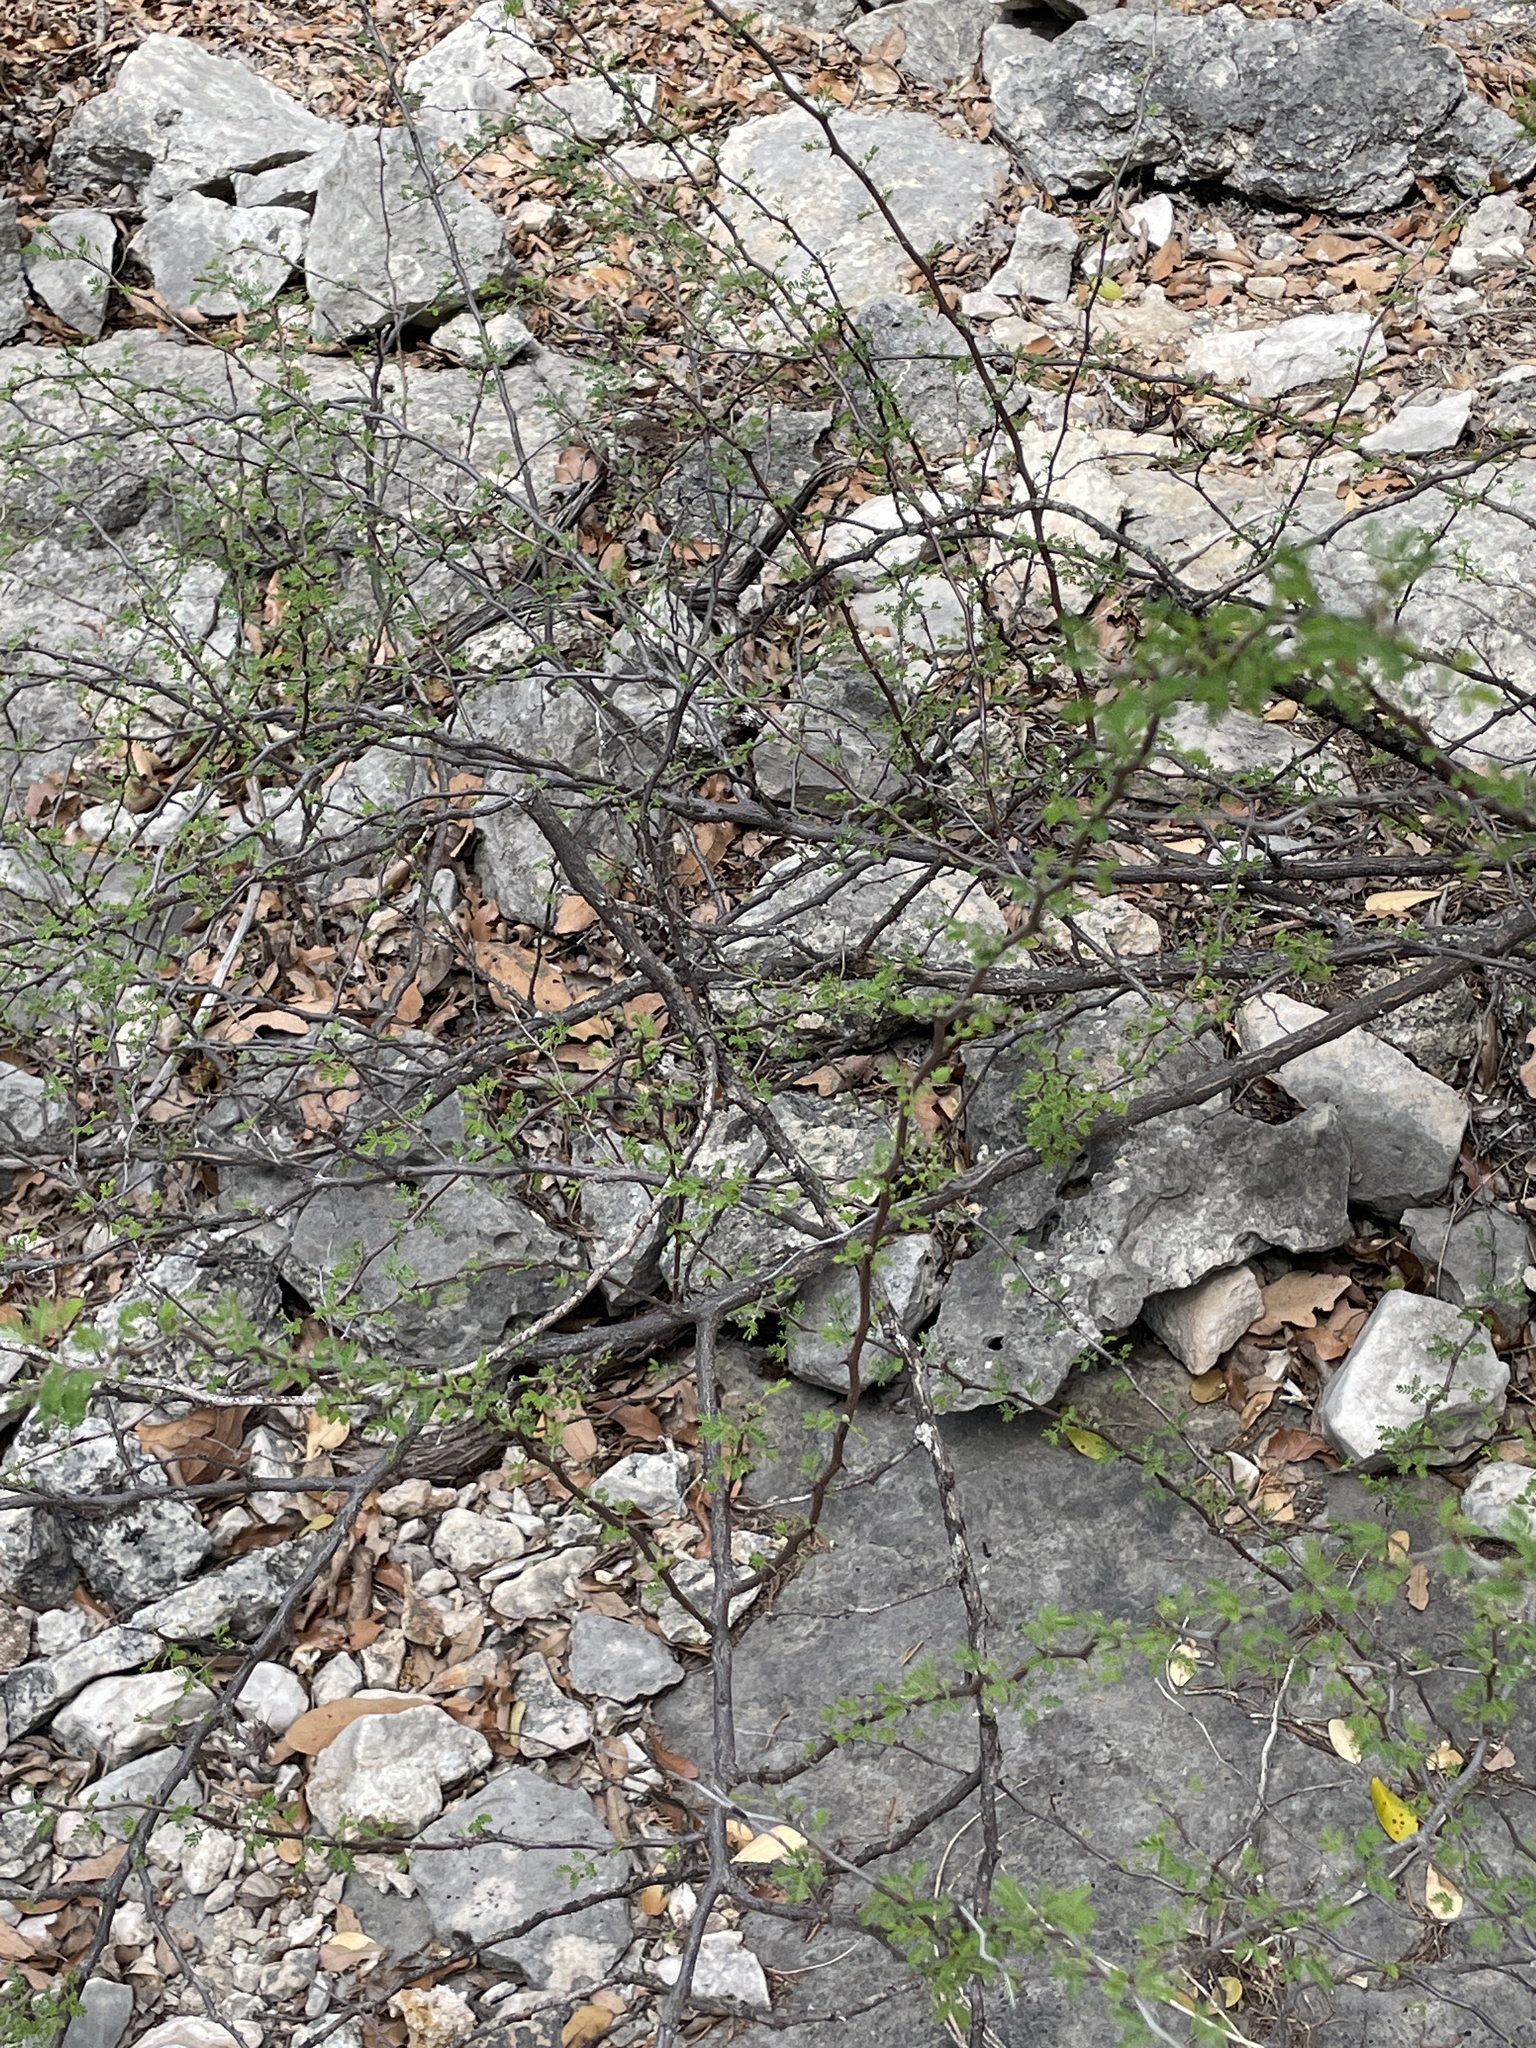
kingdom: Plantae
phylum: Tracheophyta
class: Magnoliopsida
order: Fabales
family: Fabaceae
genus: Mimosa
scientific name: Mimosa texana
